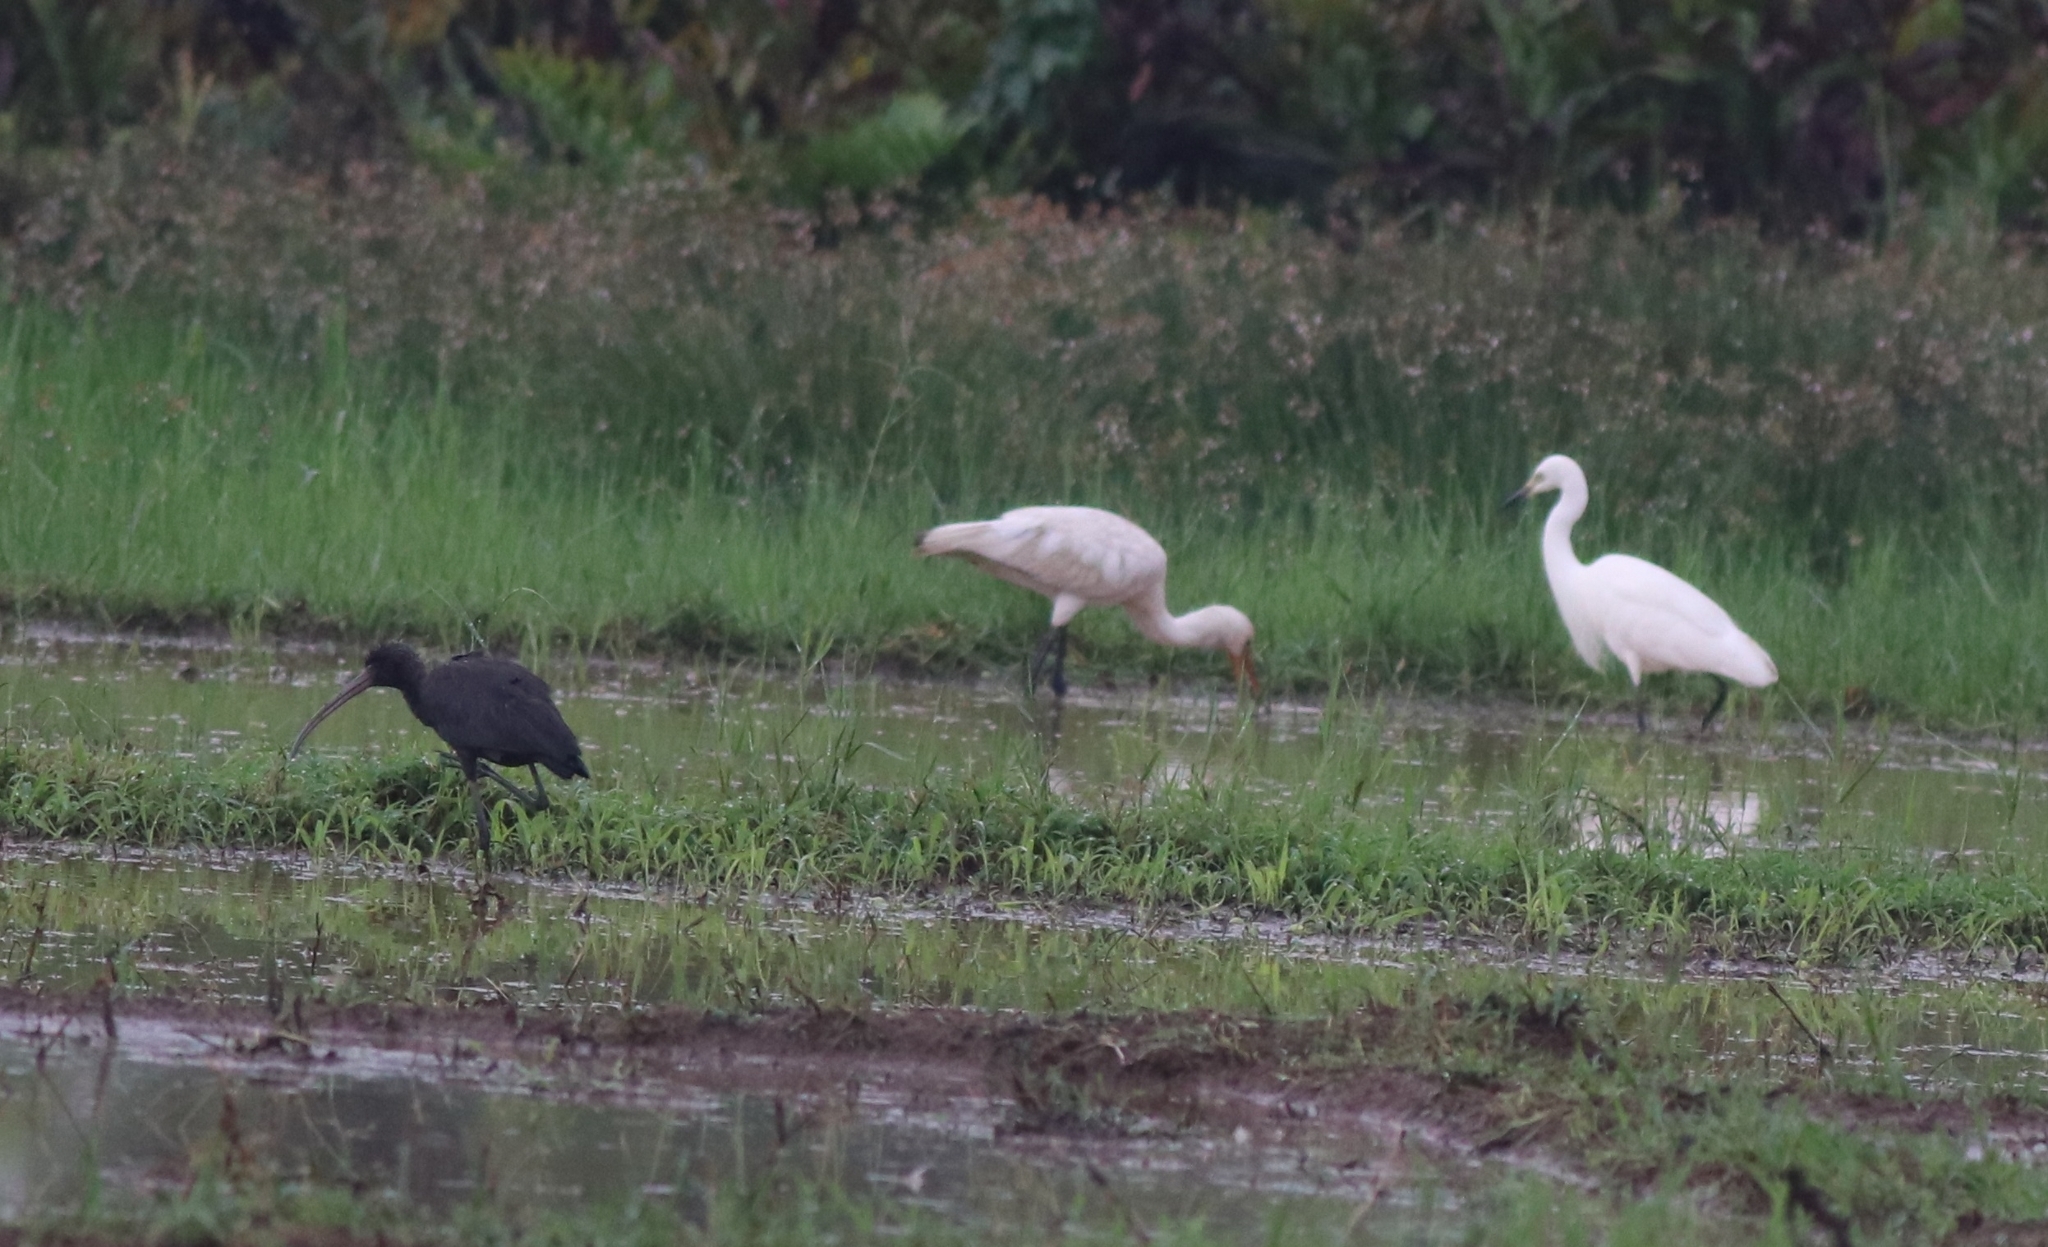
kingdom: Animalia
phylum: Chordata
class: Aves
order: Pelecaniformes
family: Ardeidae
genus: Egretta
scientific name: Egretta intermedia
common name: Intermediate egret
